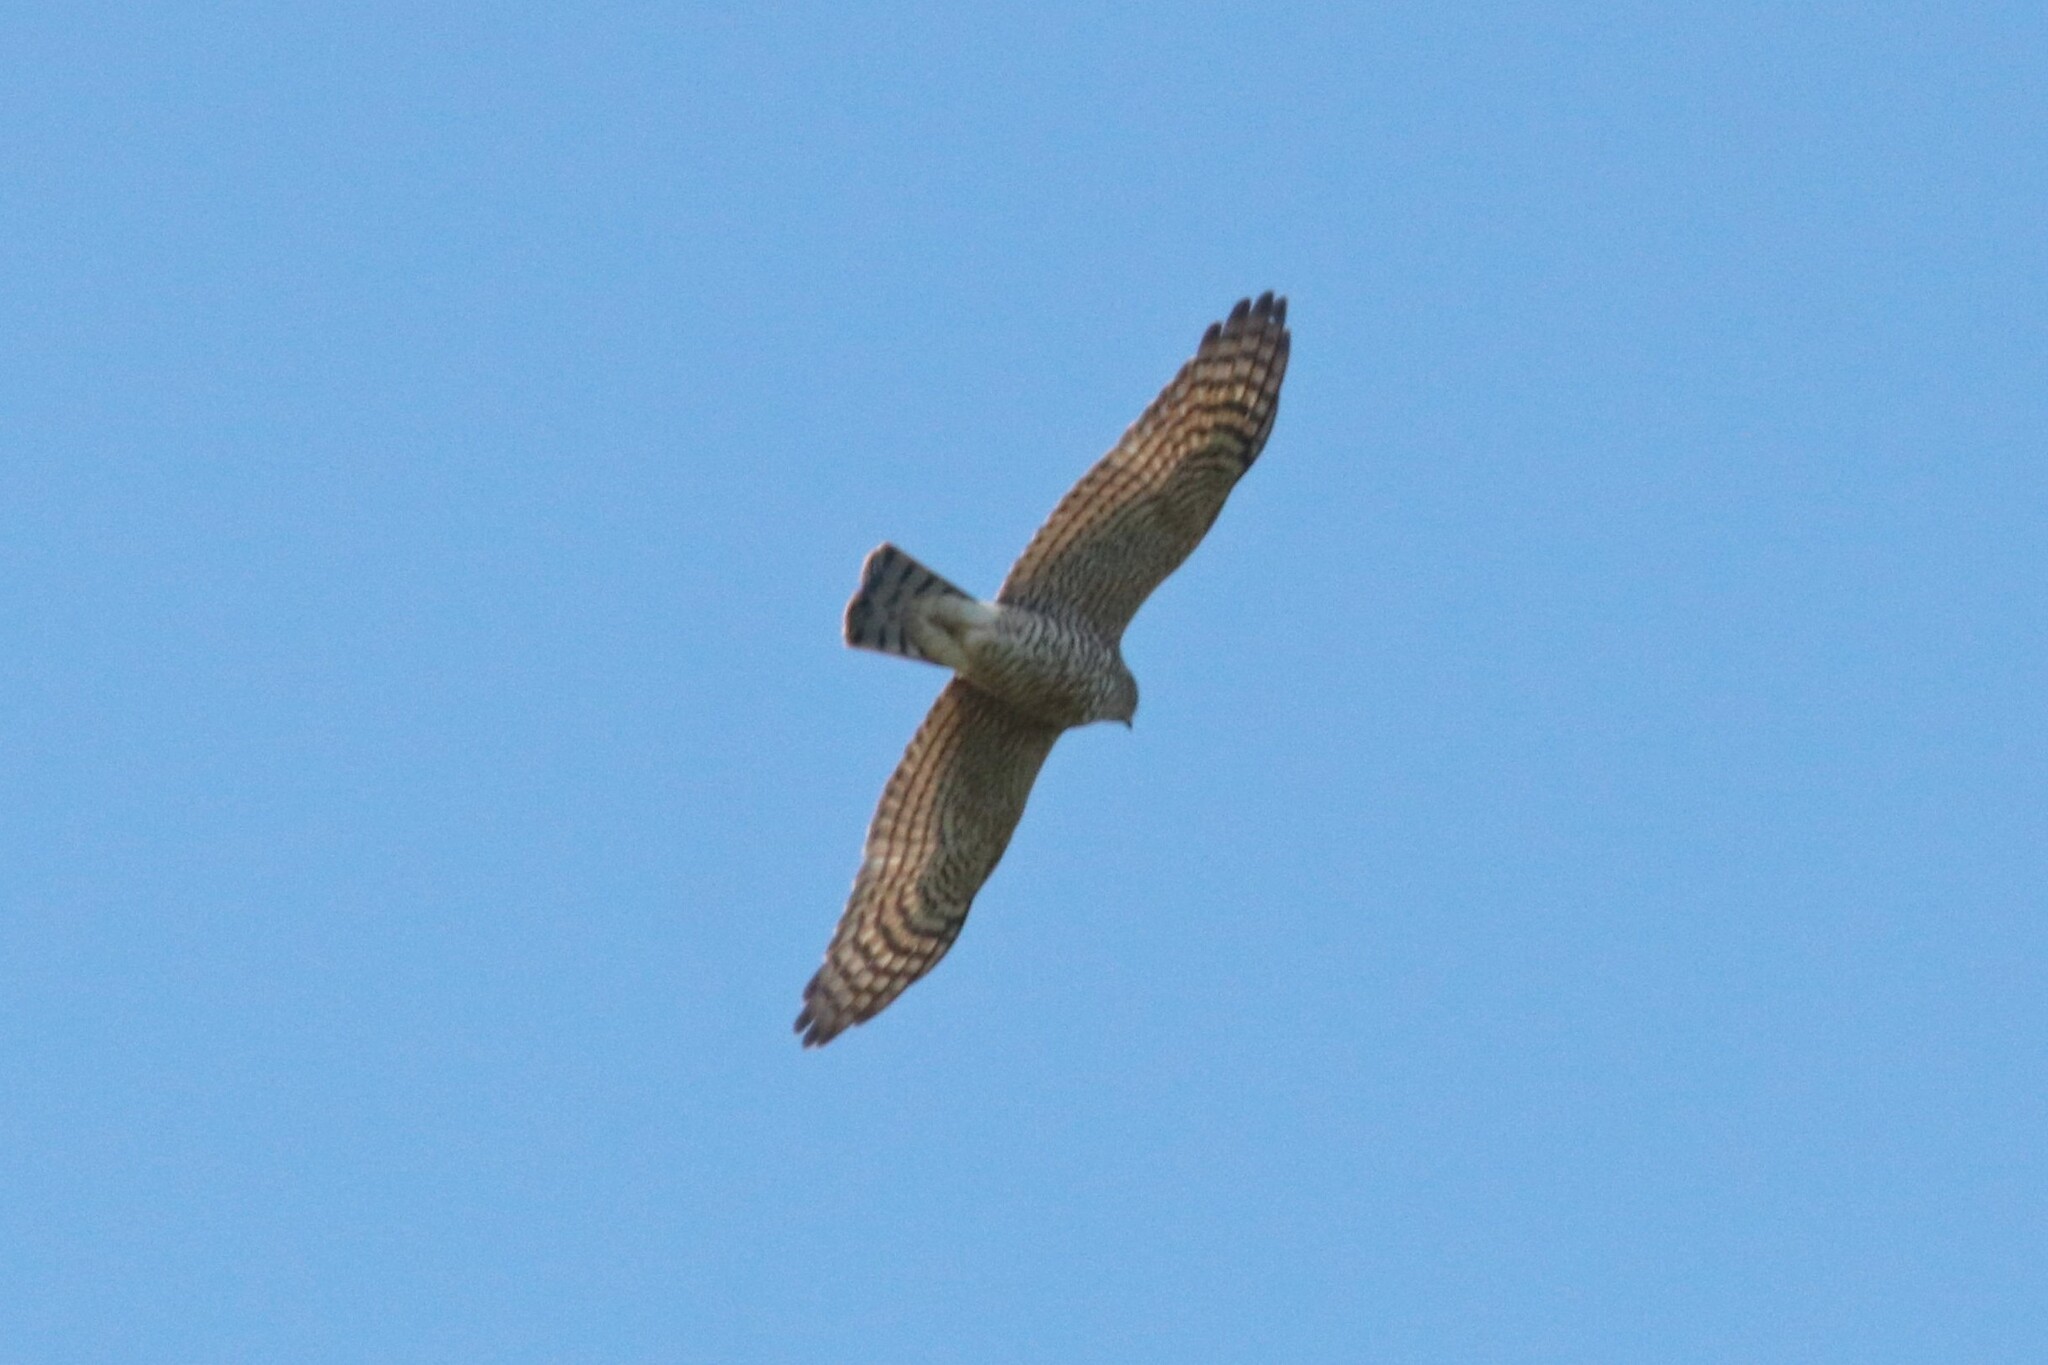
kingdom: Animalia
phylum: Chordata
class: Aves
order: Accipitriformes
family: Accipitridae
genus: Accipiter
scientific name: Accipiter nisus
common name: Eurasian sparrowhawk
